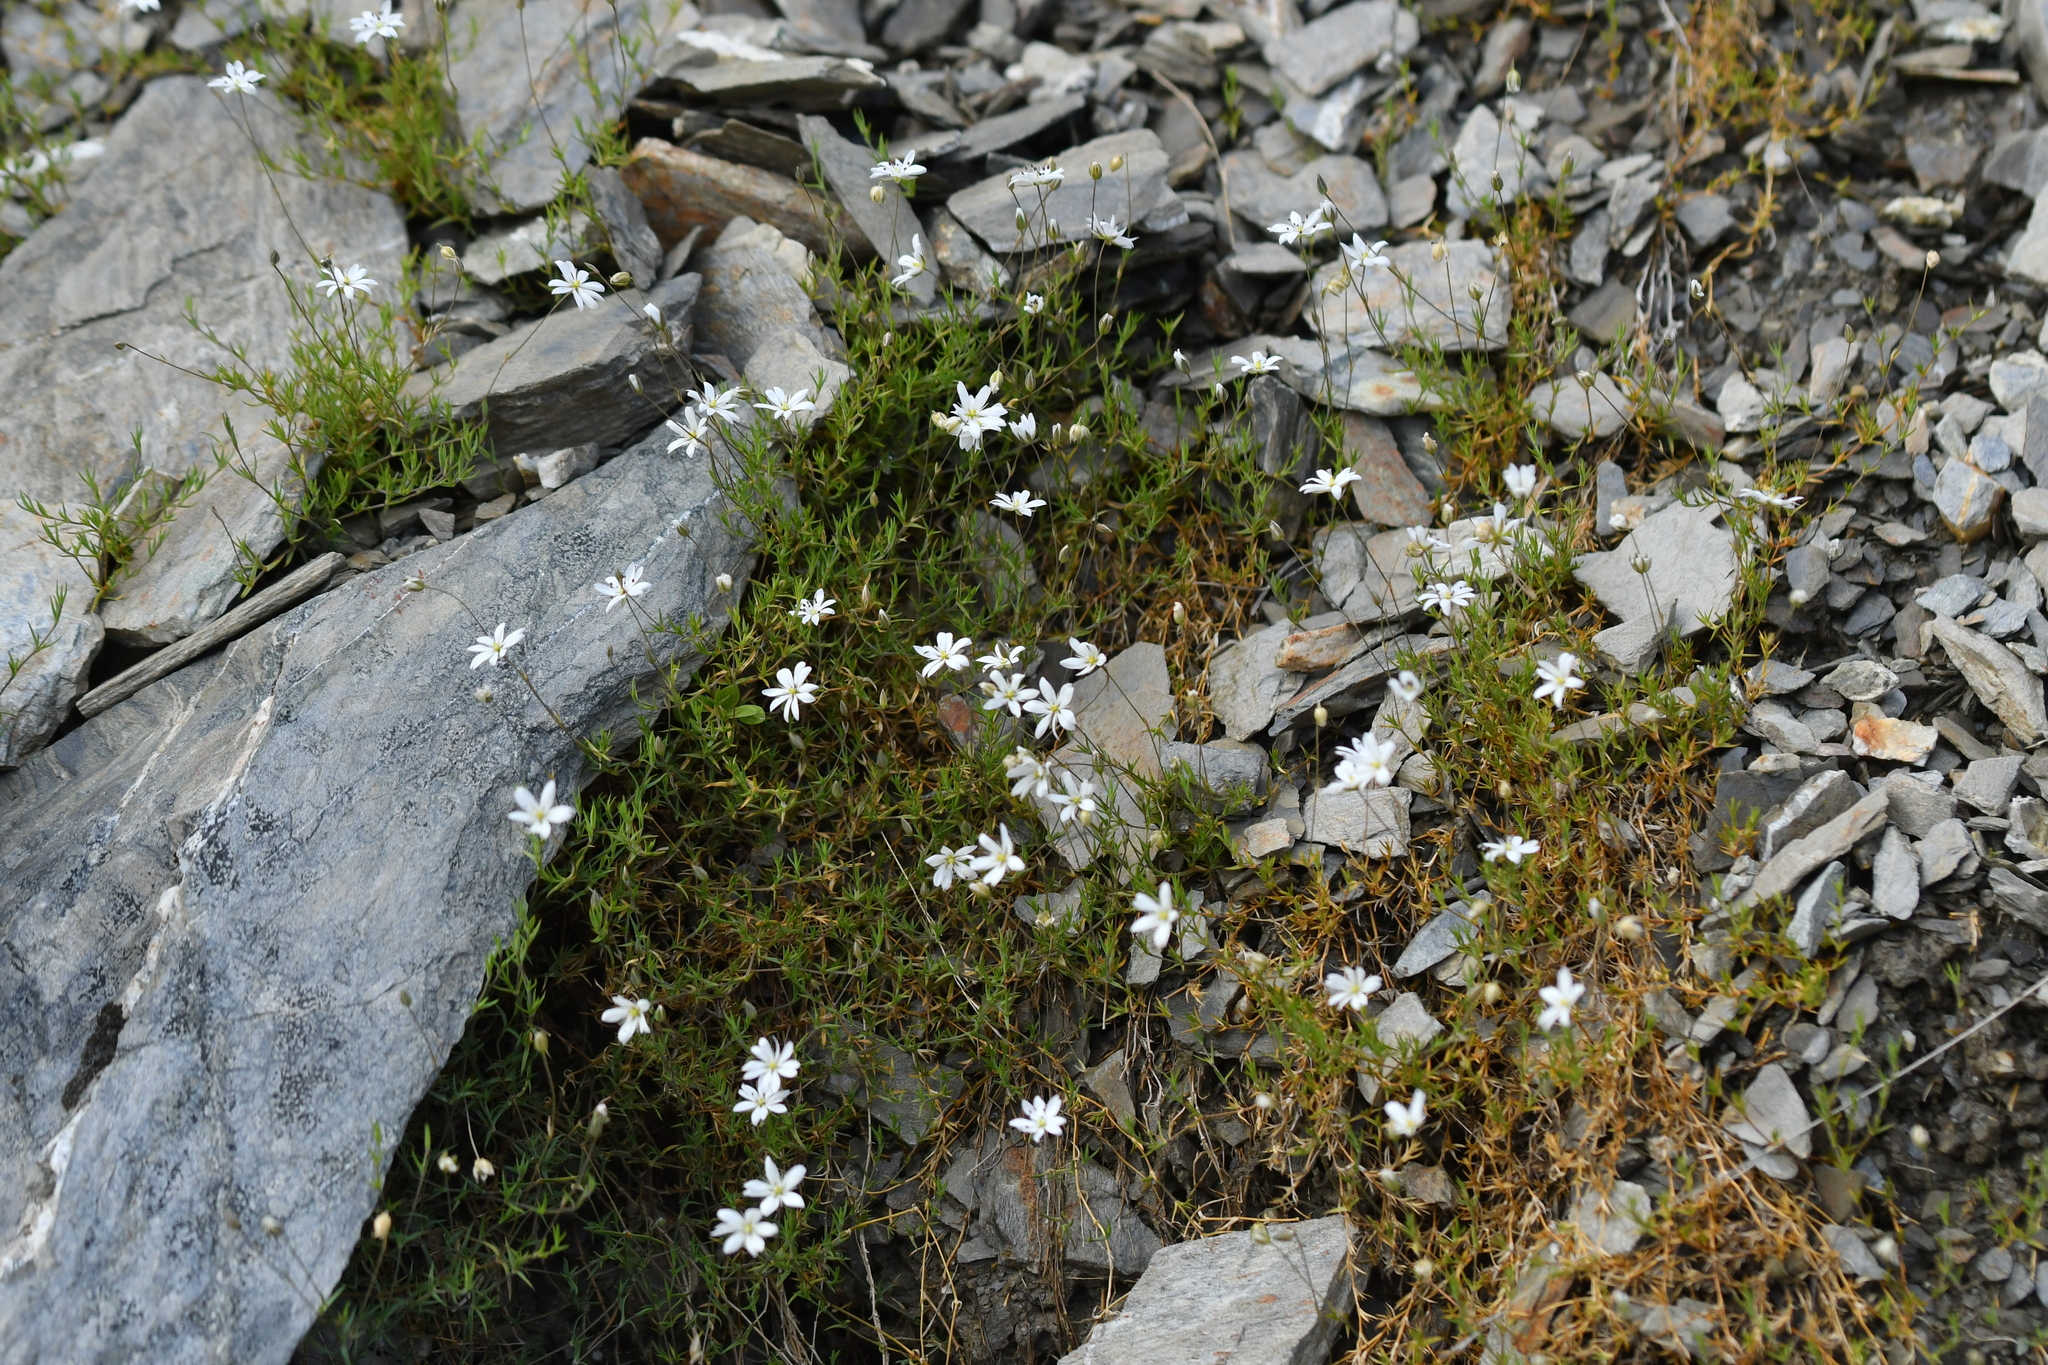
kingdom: Plantae
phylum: Tracheophyta
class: Magnoliopsida
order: Caryophyllales
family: Caryophyllaceae
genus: Stellaria
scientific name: Stellaria gracilenta
